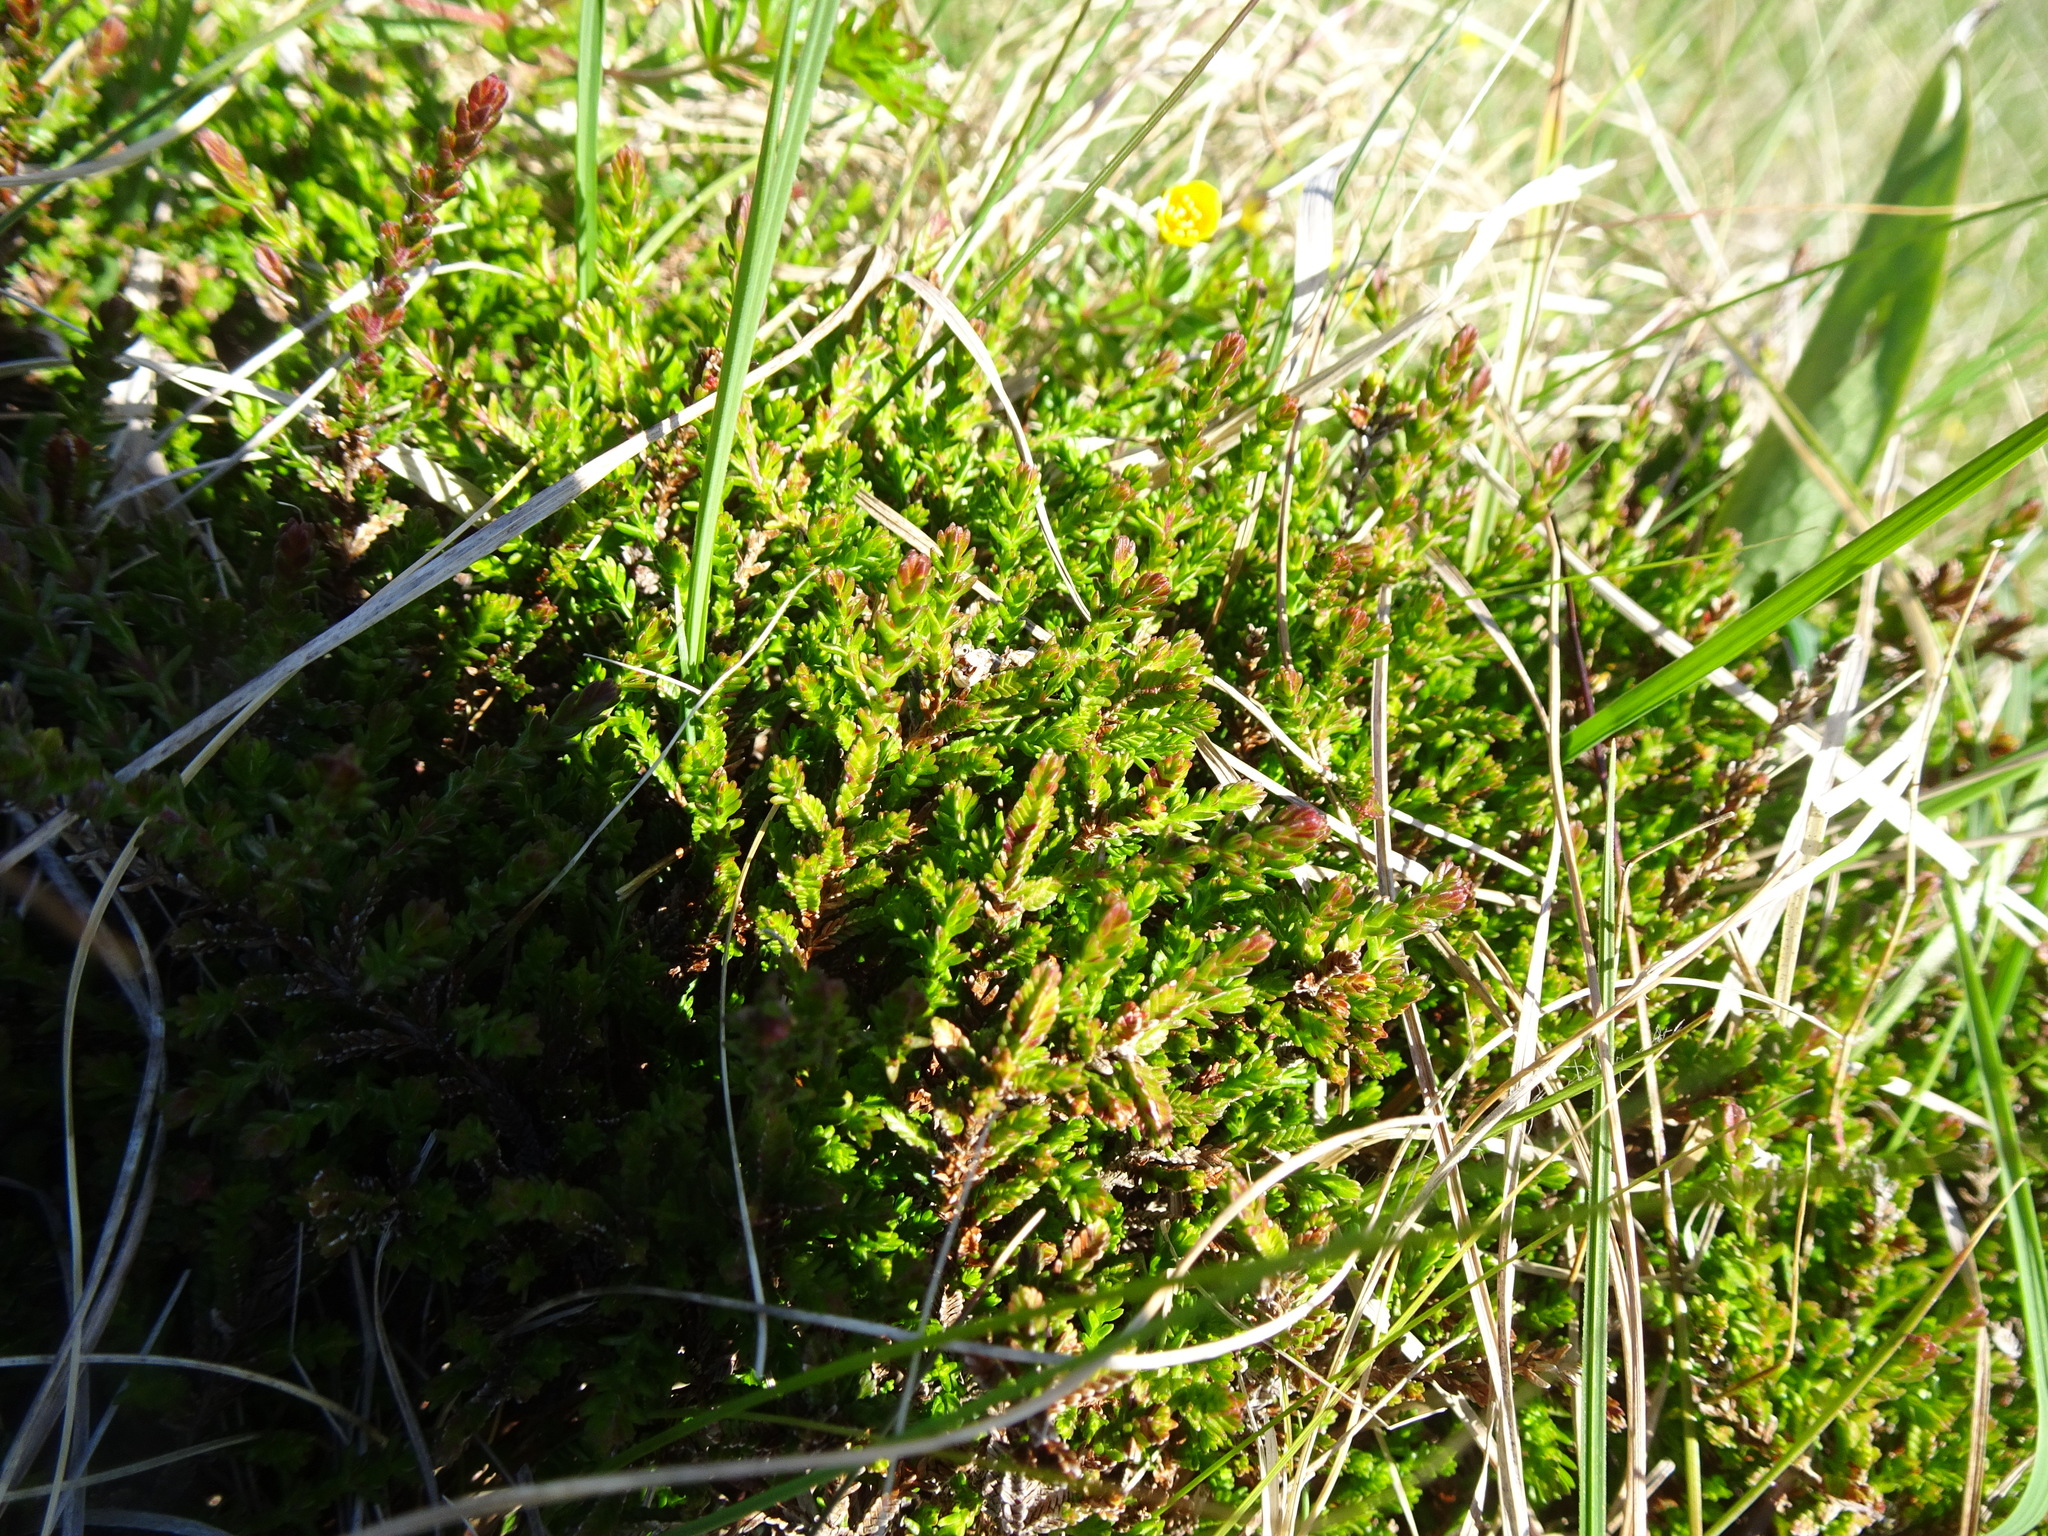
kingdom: Plantae
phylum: Tracheophyta
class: Magnoliopsida
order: Ericales
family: Ericaceae
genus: Calluna
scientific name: Calluna vulgaris
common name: Heather
